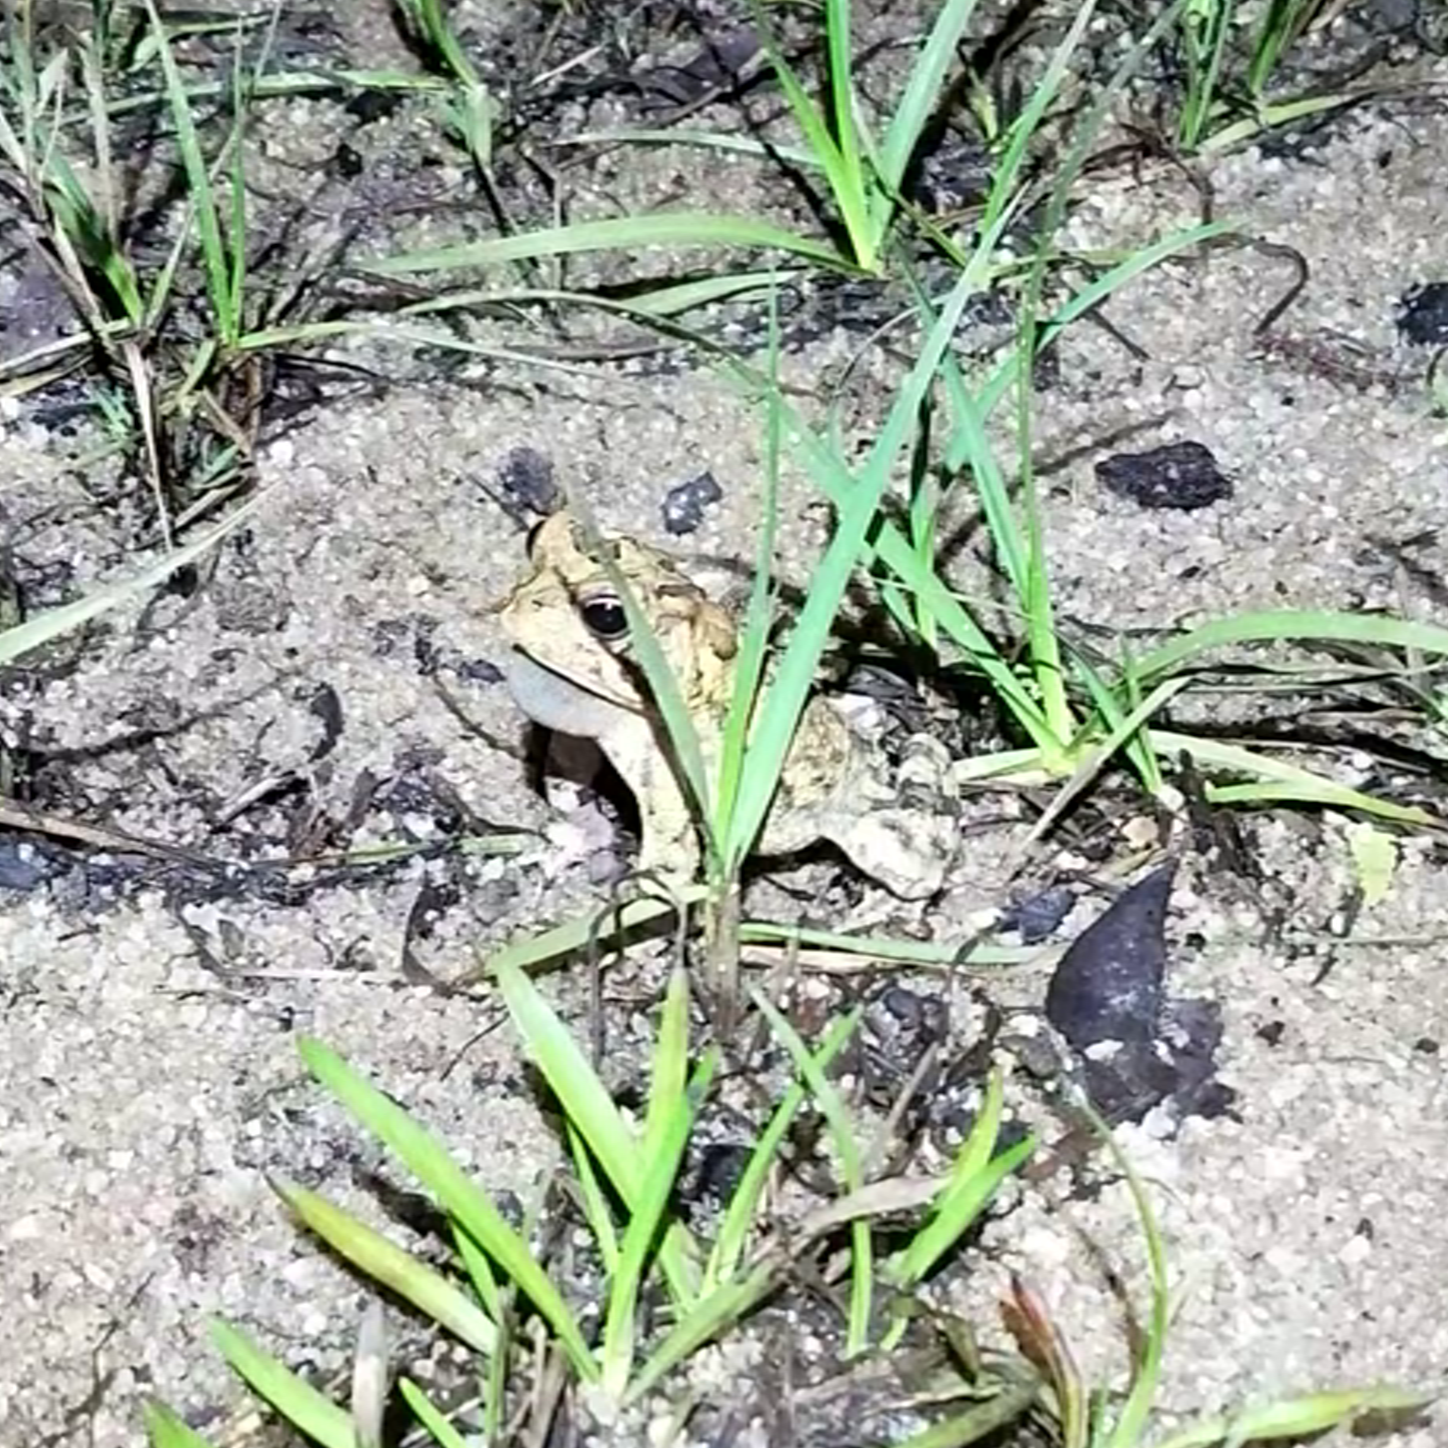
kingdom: Animalia
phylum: Chordata
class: Amphibia
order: Anura
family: Bufonidae
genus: Anaxyrus
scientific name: Anaxyrus terrestris
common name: Southern toad
